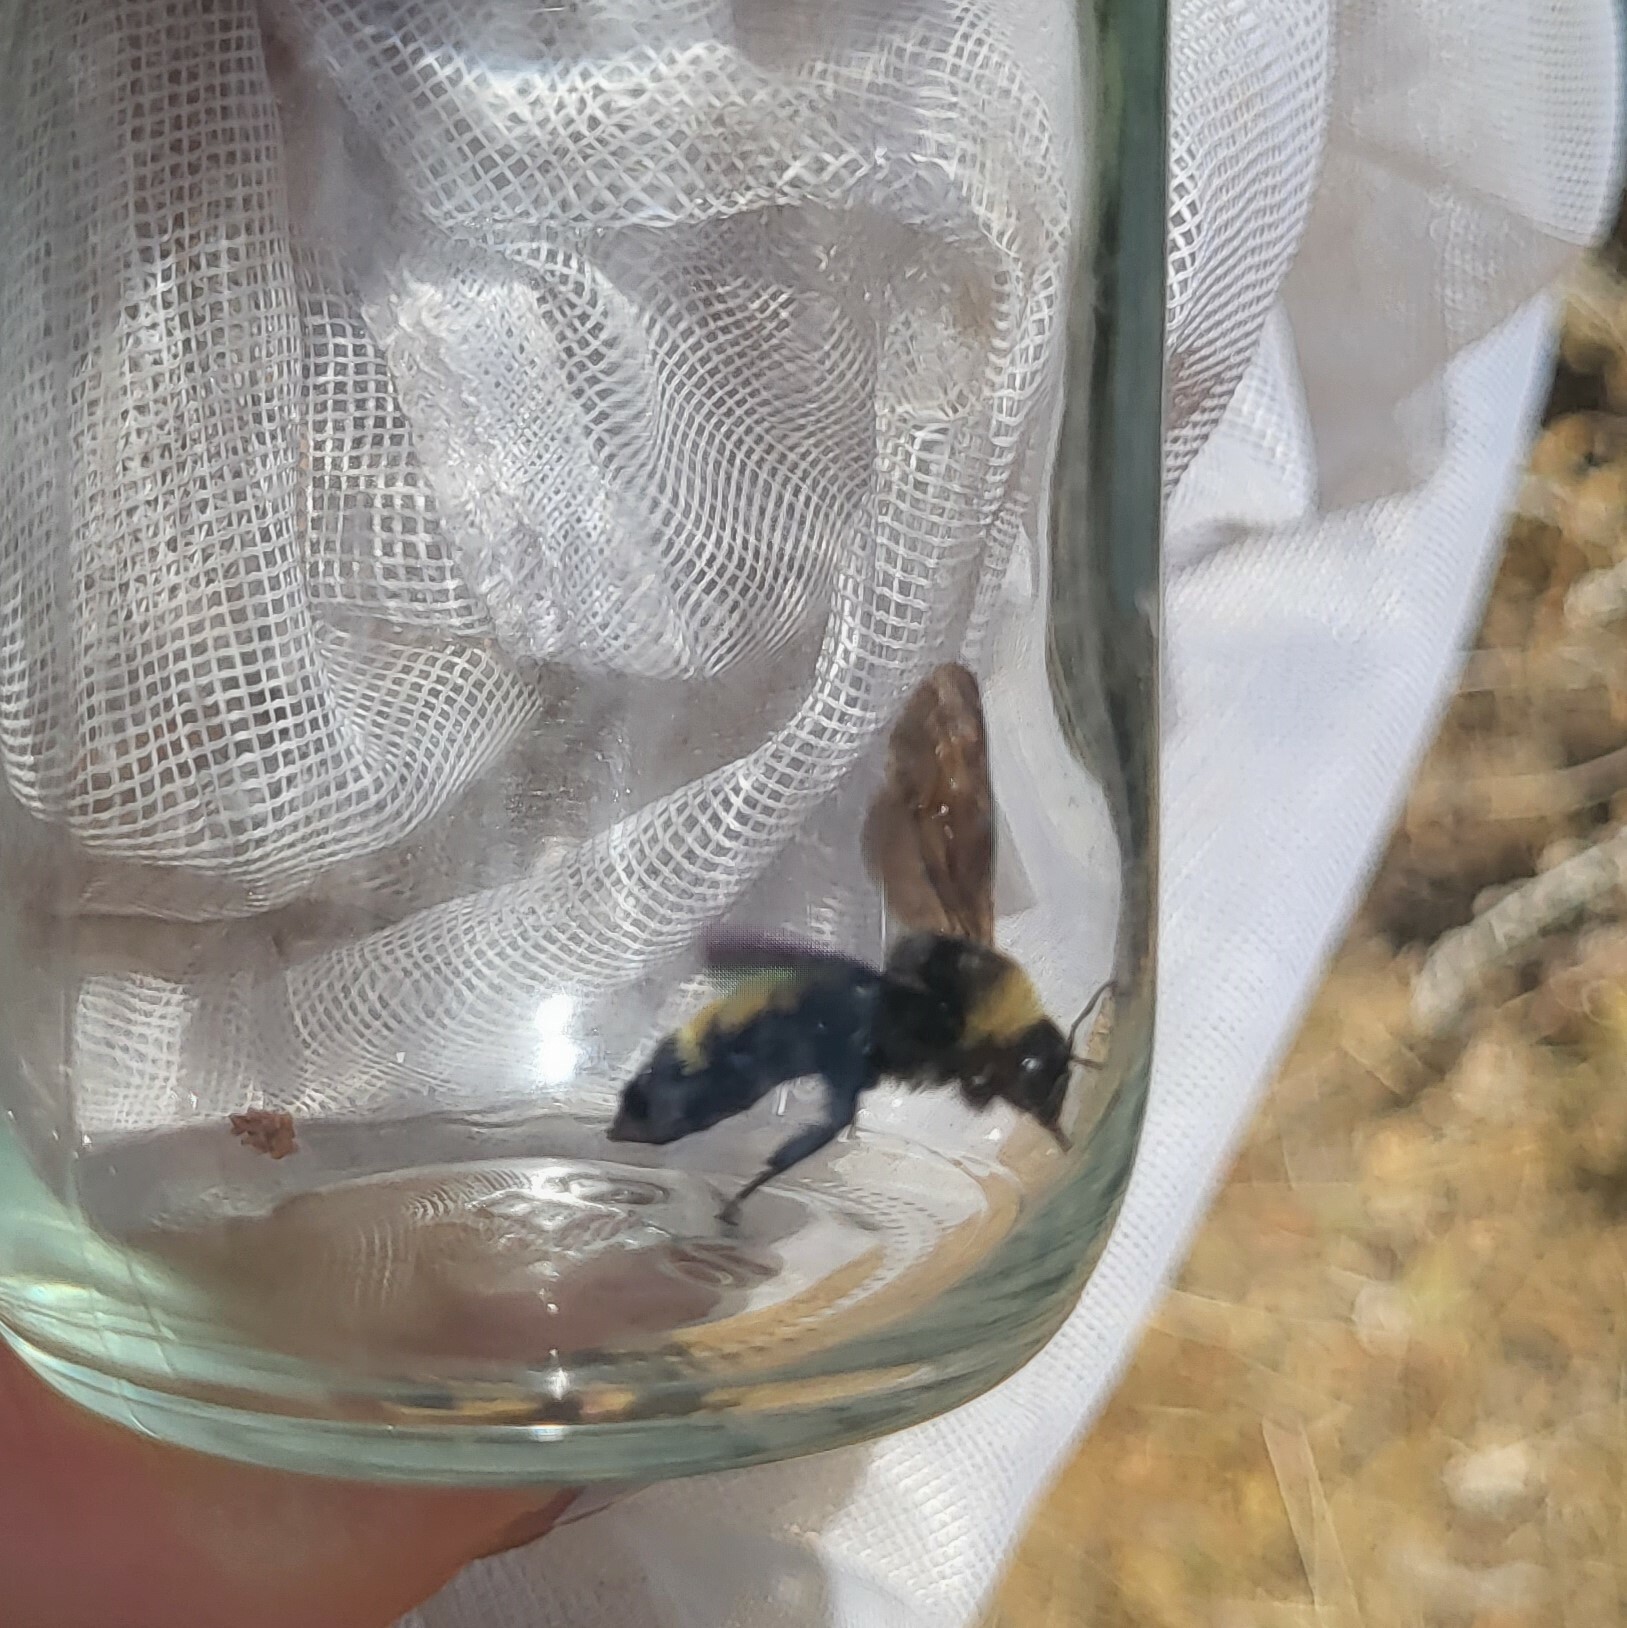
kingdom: Animalia
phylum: Arthropoda
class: Insecta
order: Hymenoptera
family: Apidae
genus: Bombus
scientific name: Bombus pensylvanicus
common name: Bumble bee
